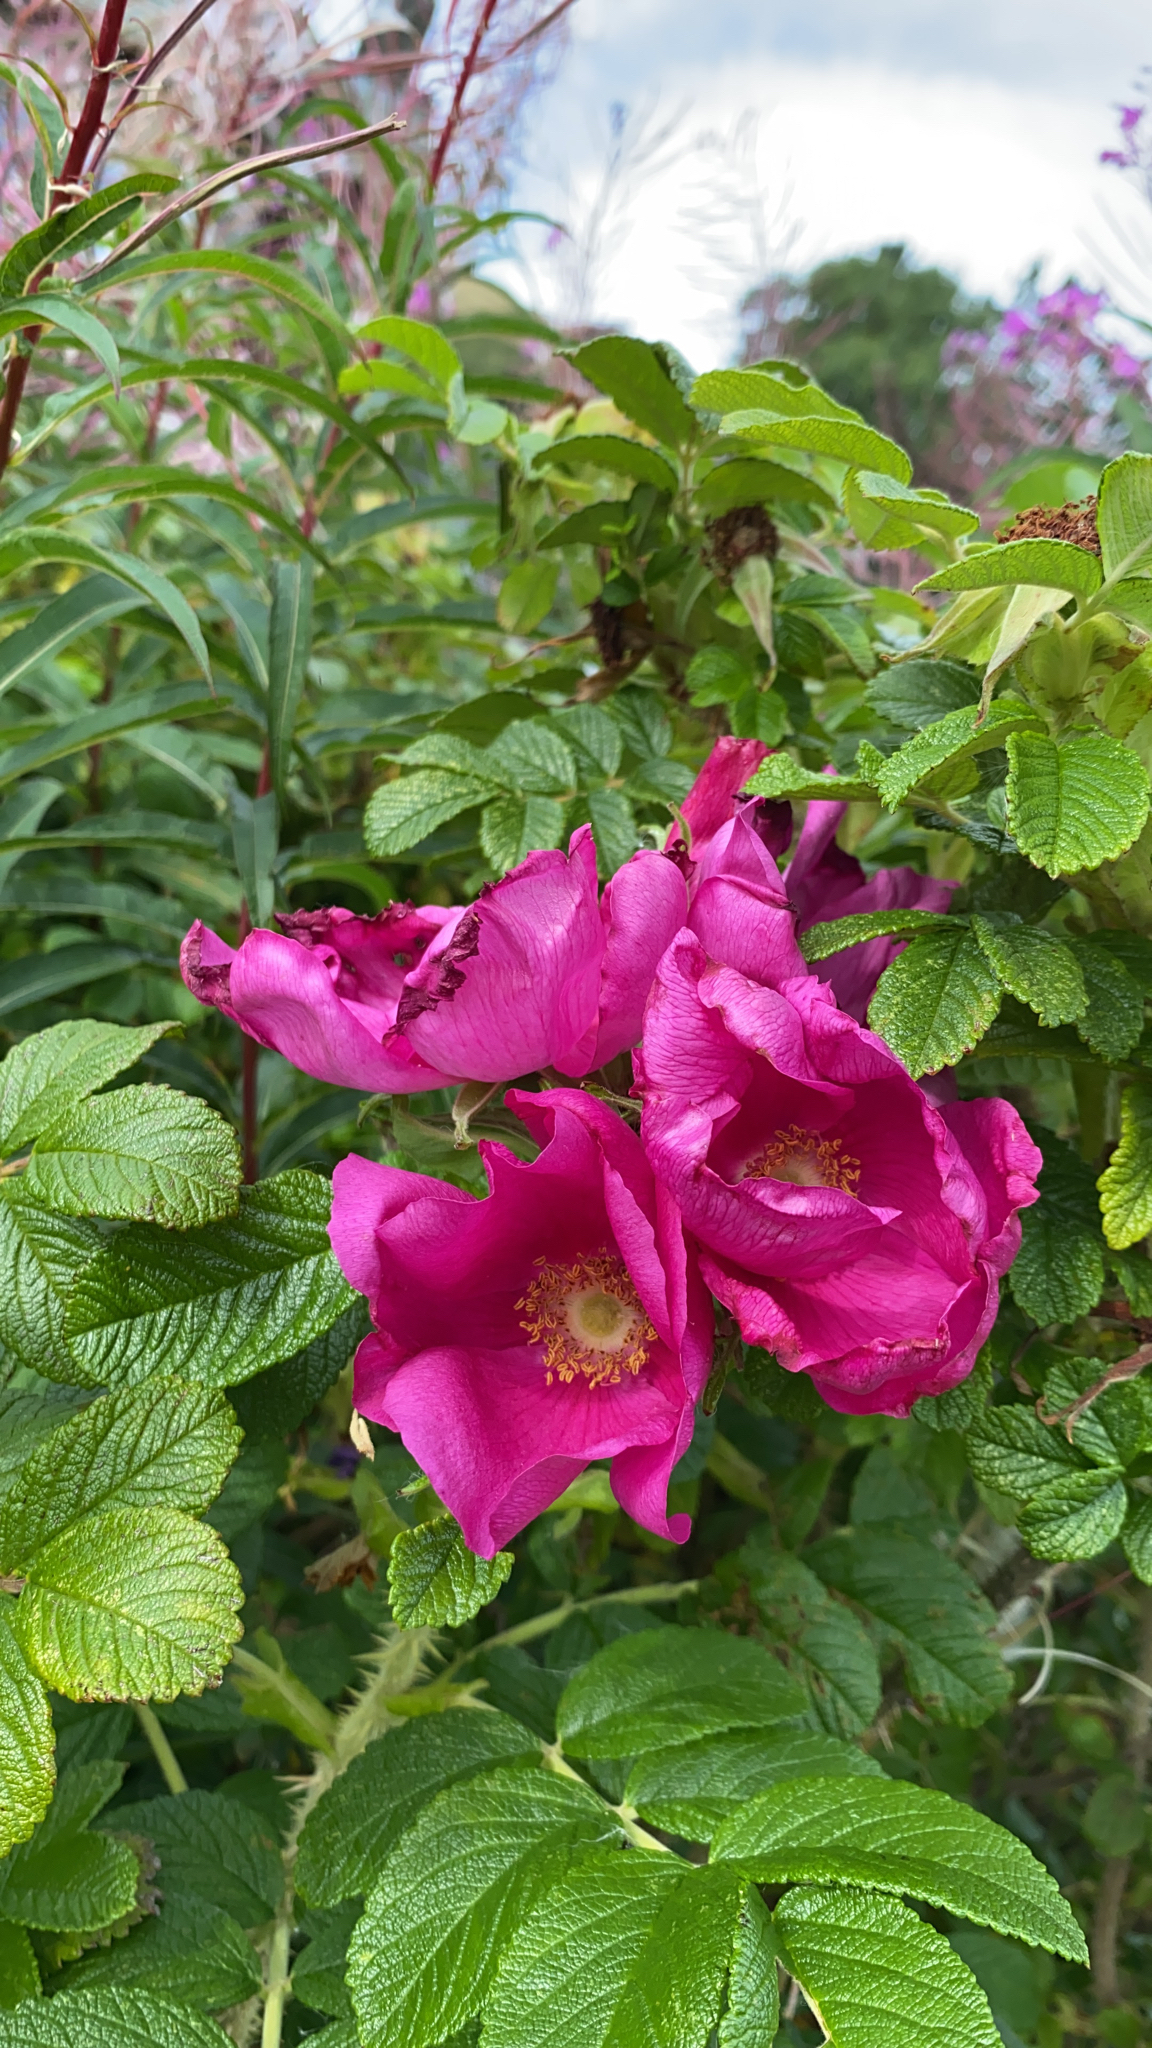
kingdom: Plantae
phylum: Tracheophyta
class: Magnoliopsida
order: Rosales
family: Rosaceae
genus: Rosa
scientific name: Rosa rugosa
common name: Japanese rose
